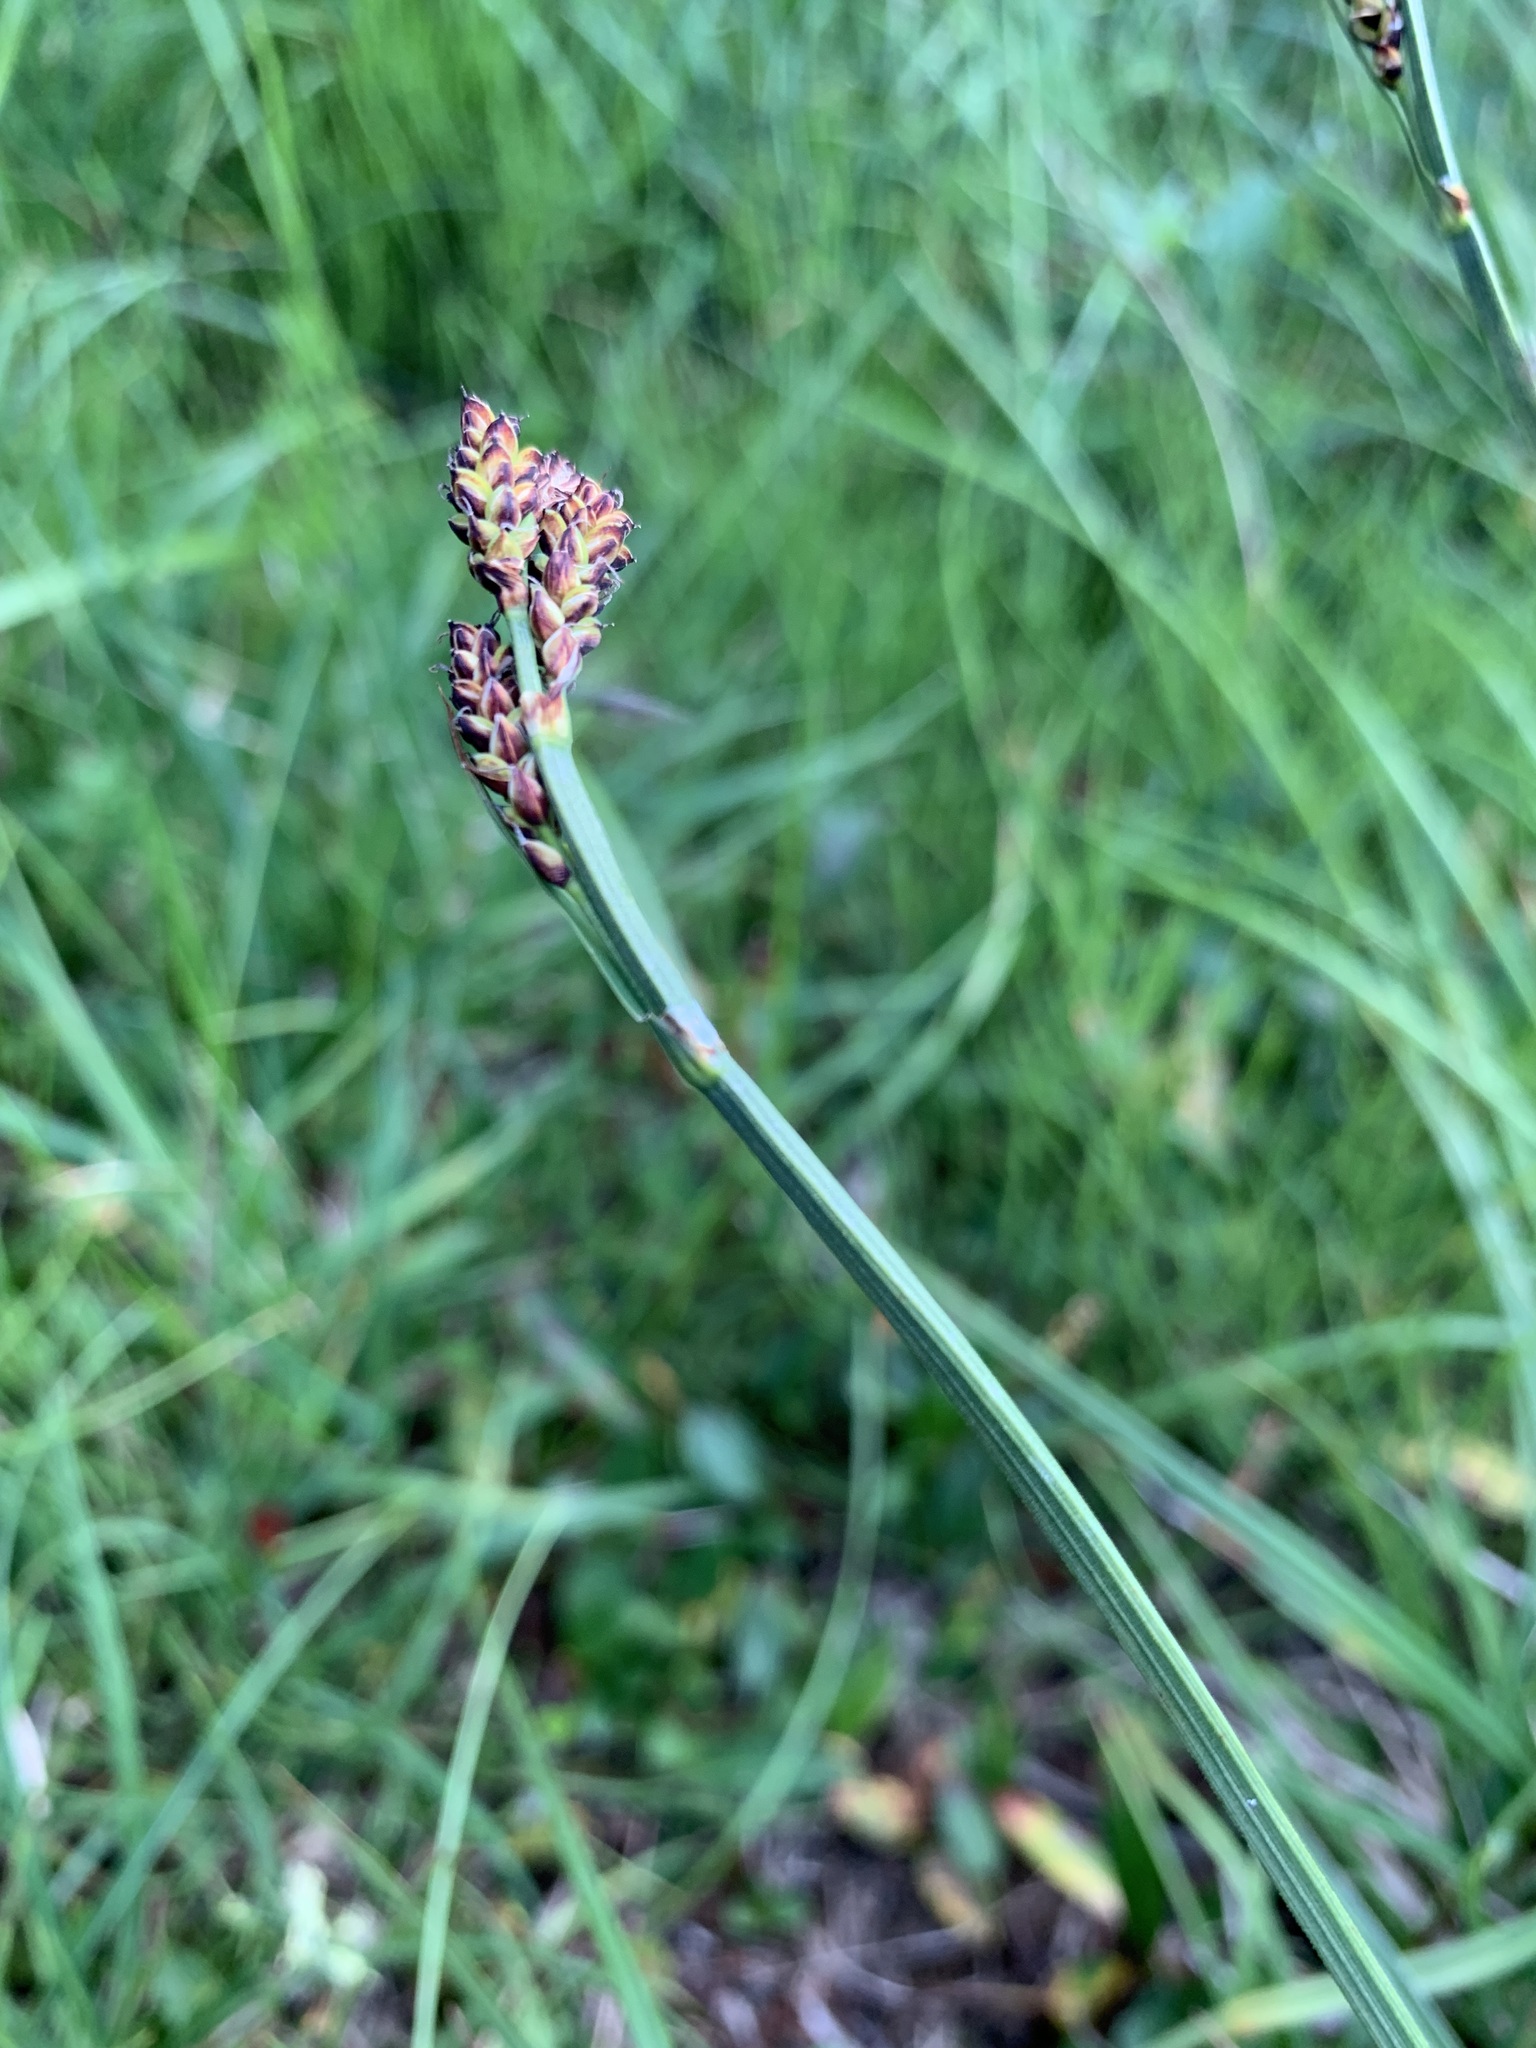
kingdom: Plantae
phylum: Tracheophyta
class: Liliopsida
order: Poales
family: Cyperaceae
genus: Carex
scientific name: Carex bigelowii
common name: Stiff sedge
